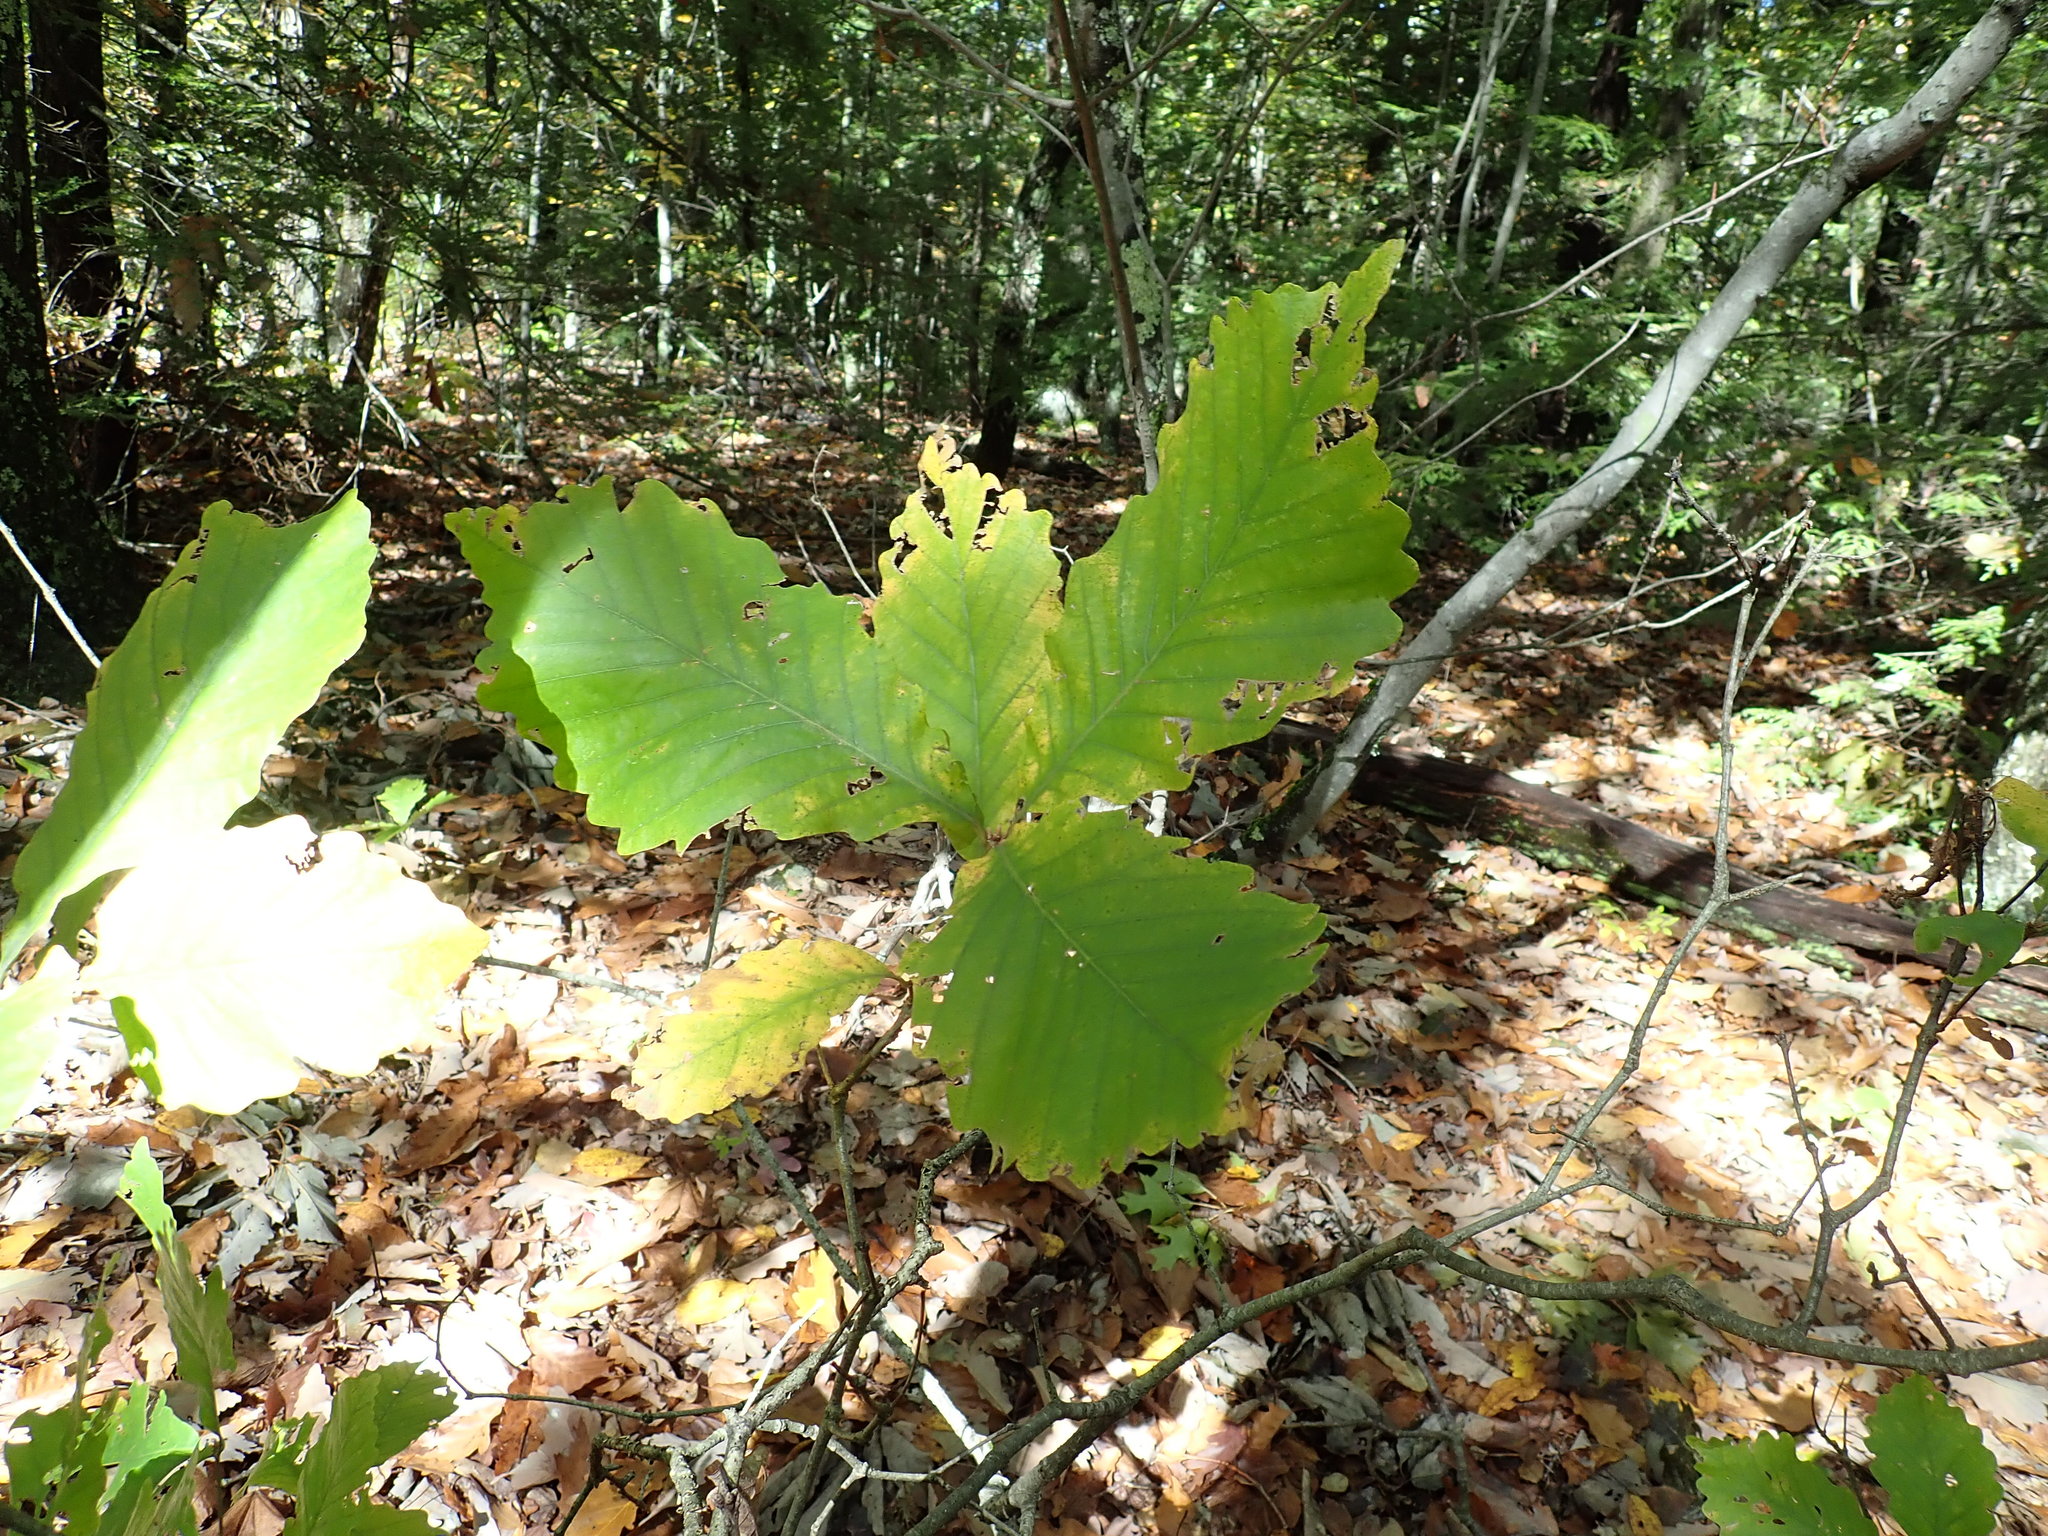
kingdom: Plantae
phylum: Tracheophyta
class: Magnoliopsida
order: Fagales
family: Fagaceae
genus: Quercus
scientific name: Quercus montana
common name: Chestnut oak
